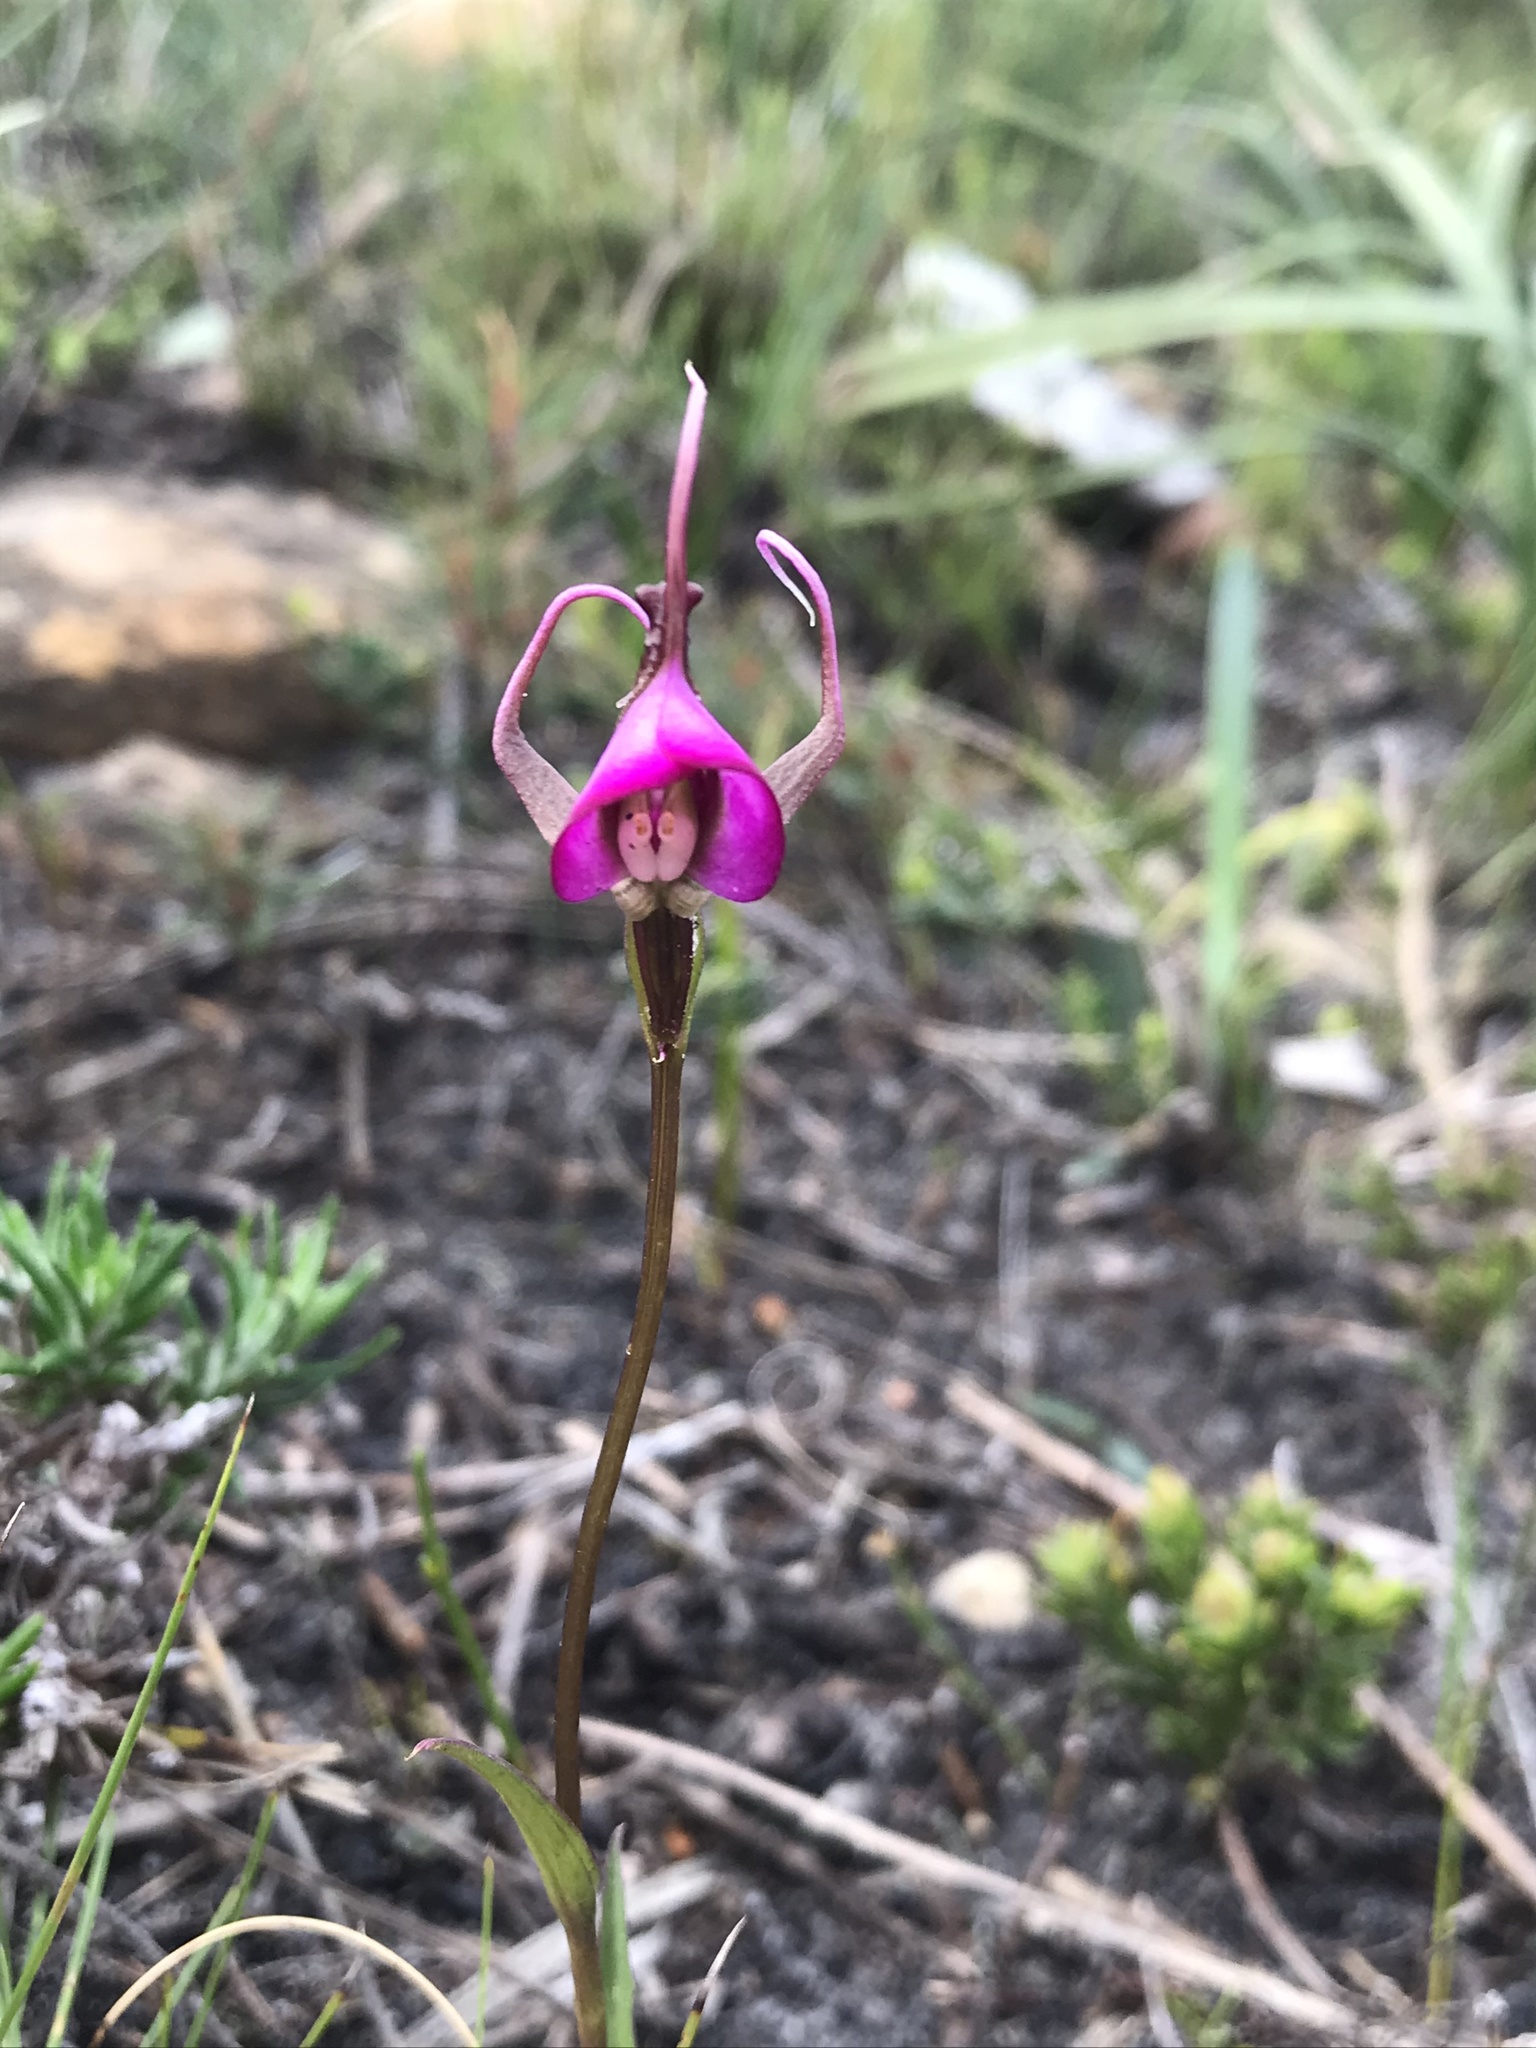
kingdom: Plantae
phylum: Tracheophyta
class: Liliopsida
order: Asparagales
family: Orchidaceae
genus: Disperis
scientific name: Disperis capensis
